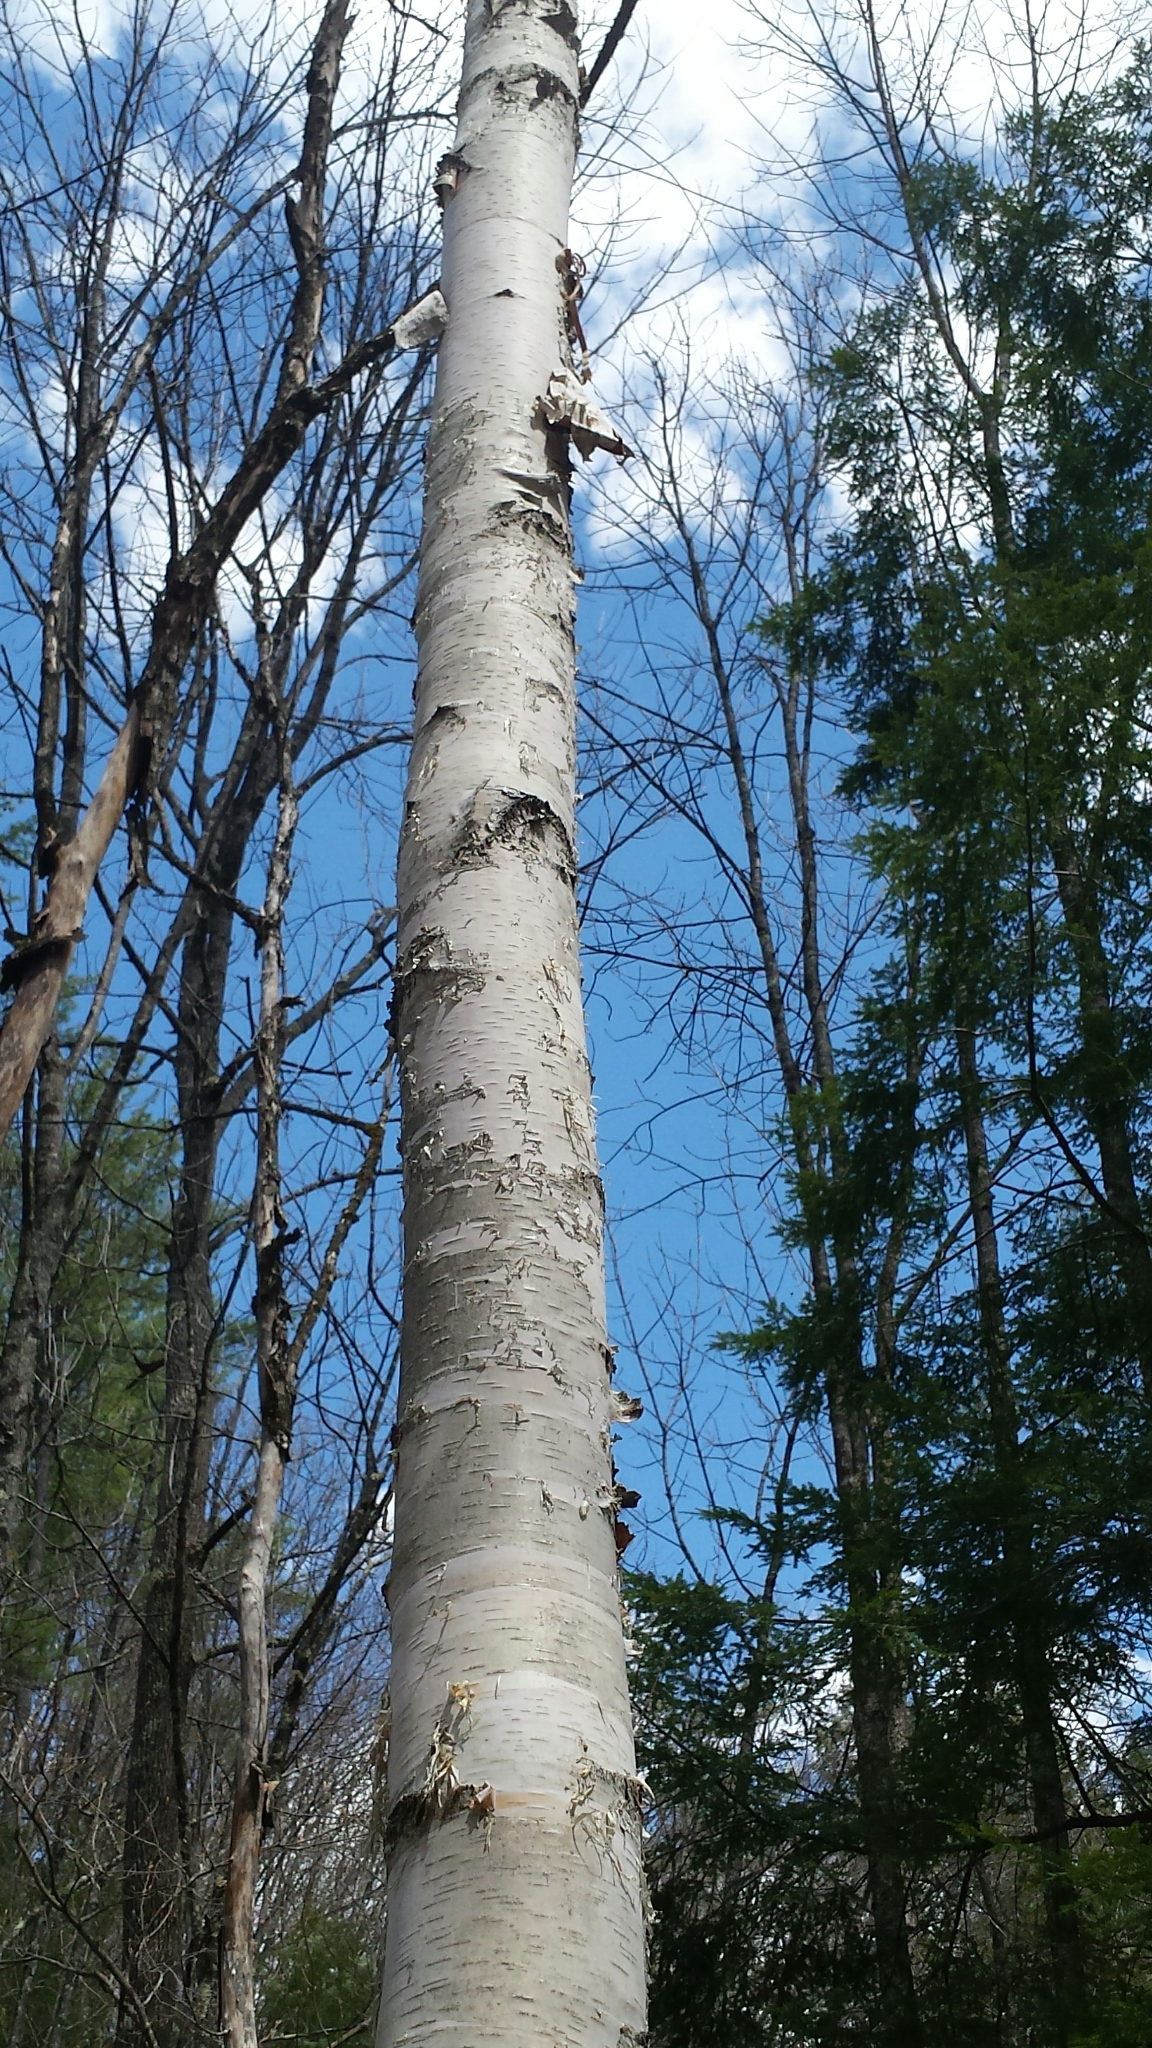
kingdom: Plantae
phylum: Tracheophyta
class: Magnoliopsida
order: Fagales
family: Betulaceae
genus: Betula
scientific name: Betula papyrifera
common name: Paper birch
